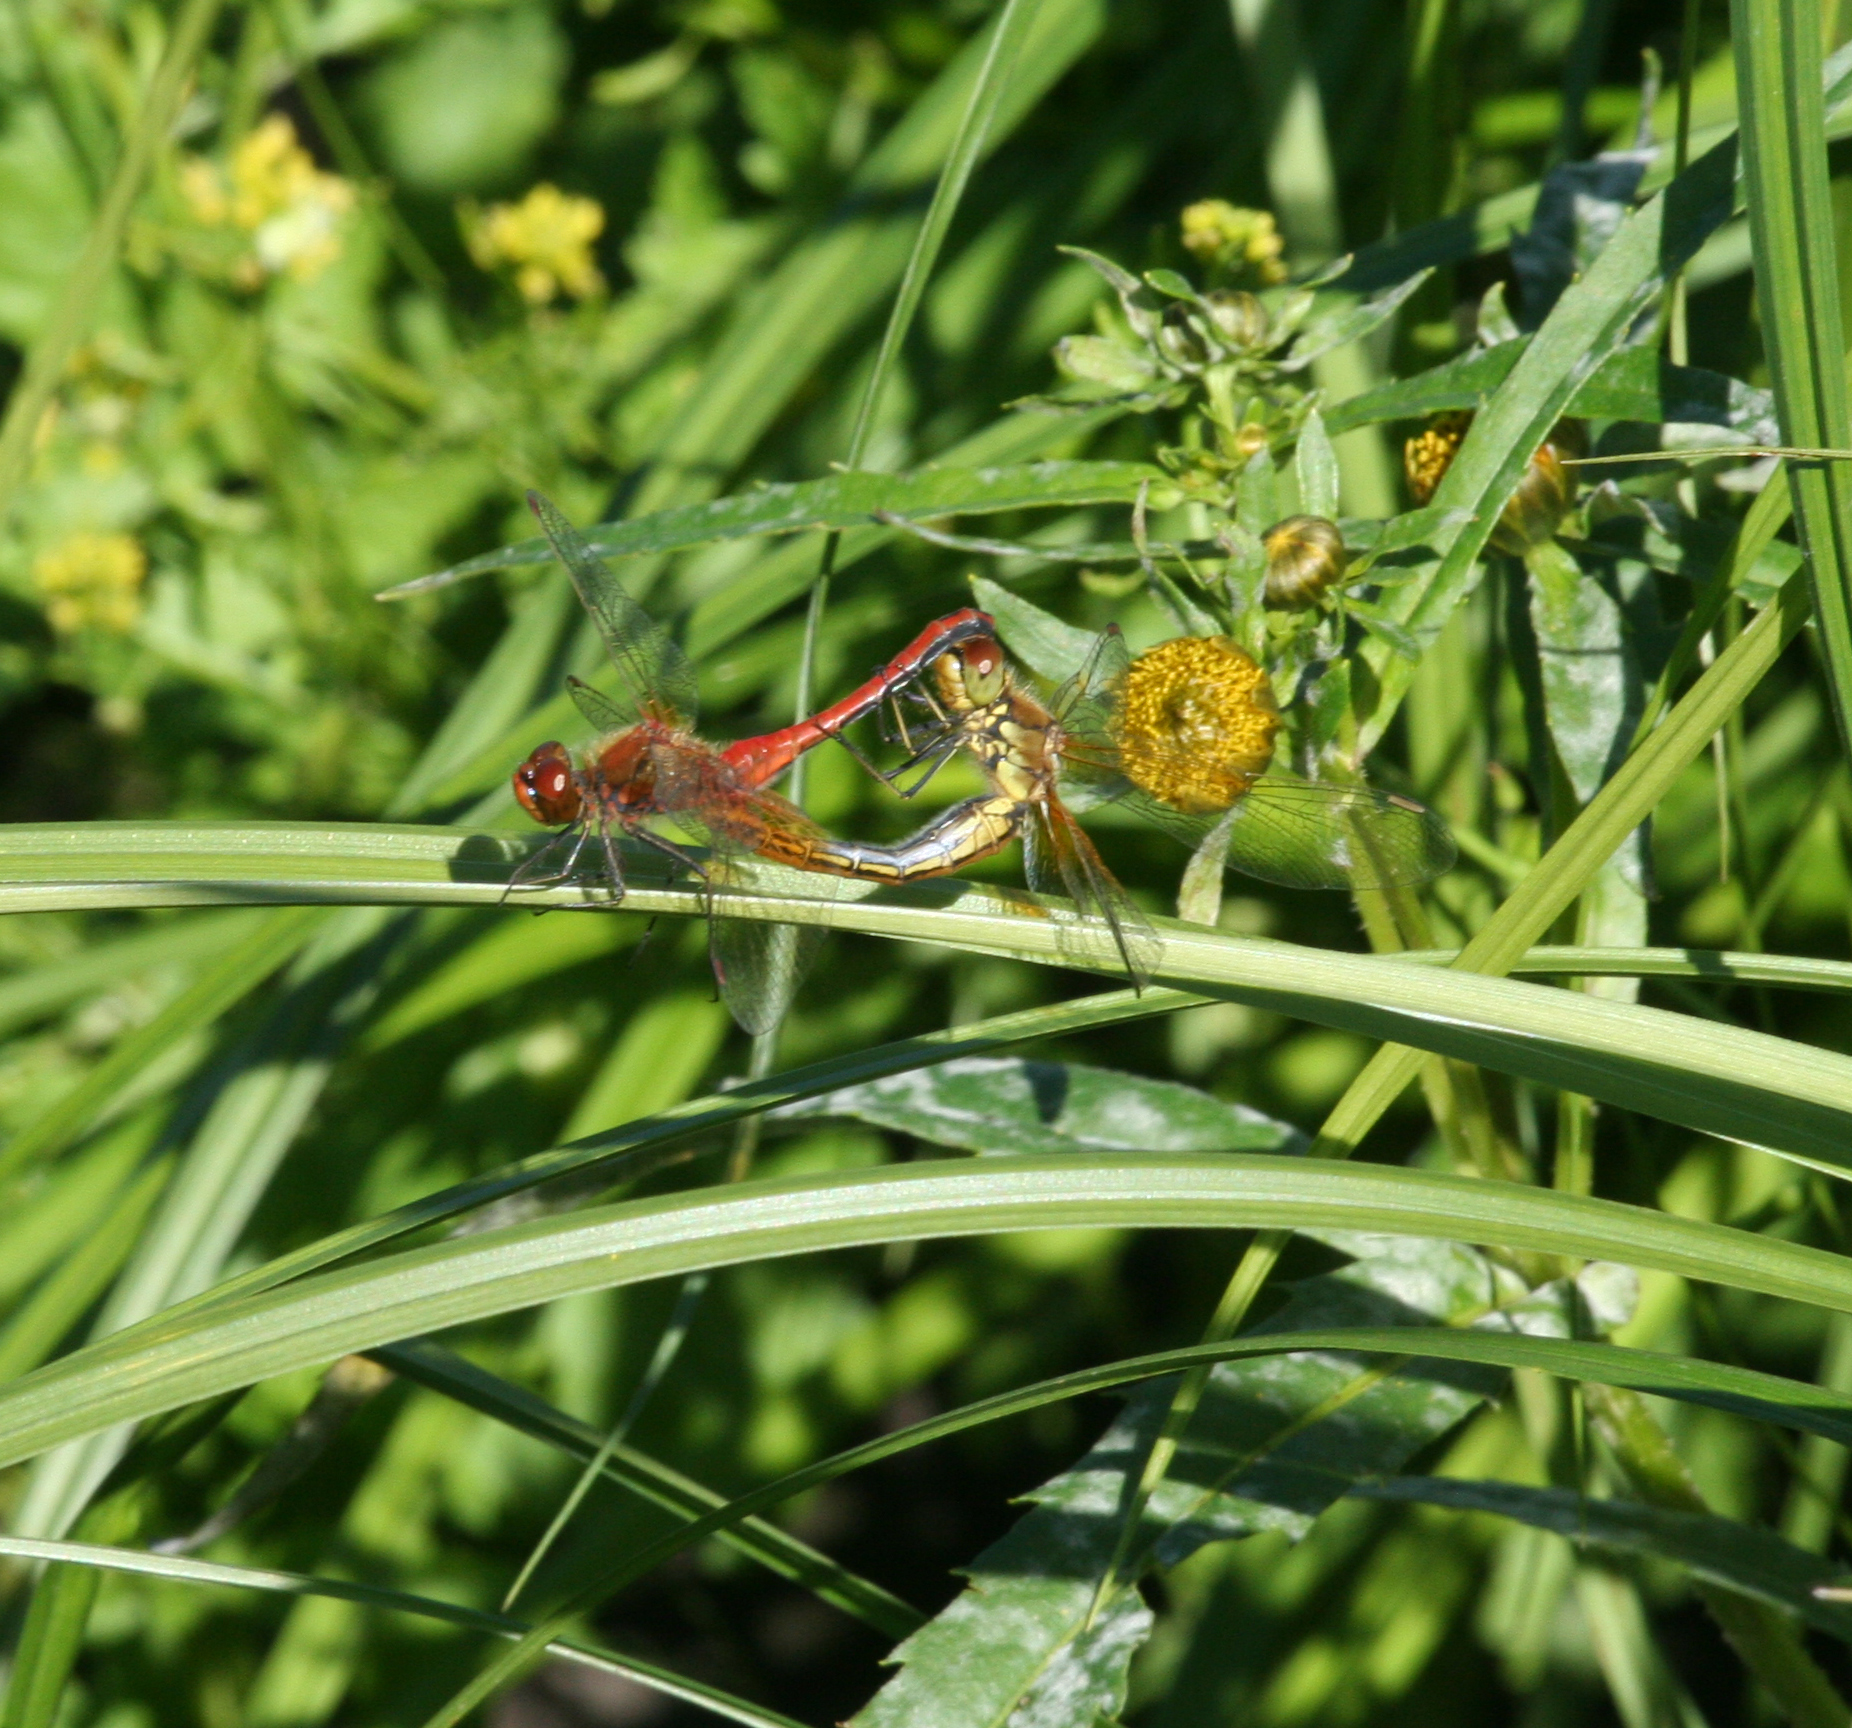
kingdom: Plantae
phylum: Tracheophyta
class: Magnoliopsida
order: Asterales
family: Asteraceae
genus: Bidens
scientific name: Bidens cernua
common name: Nodding bur-marigold
